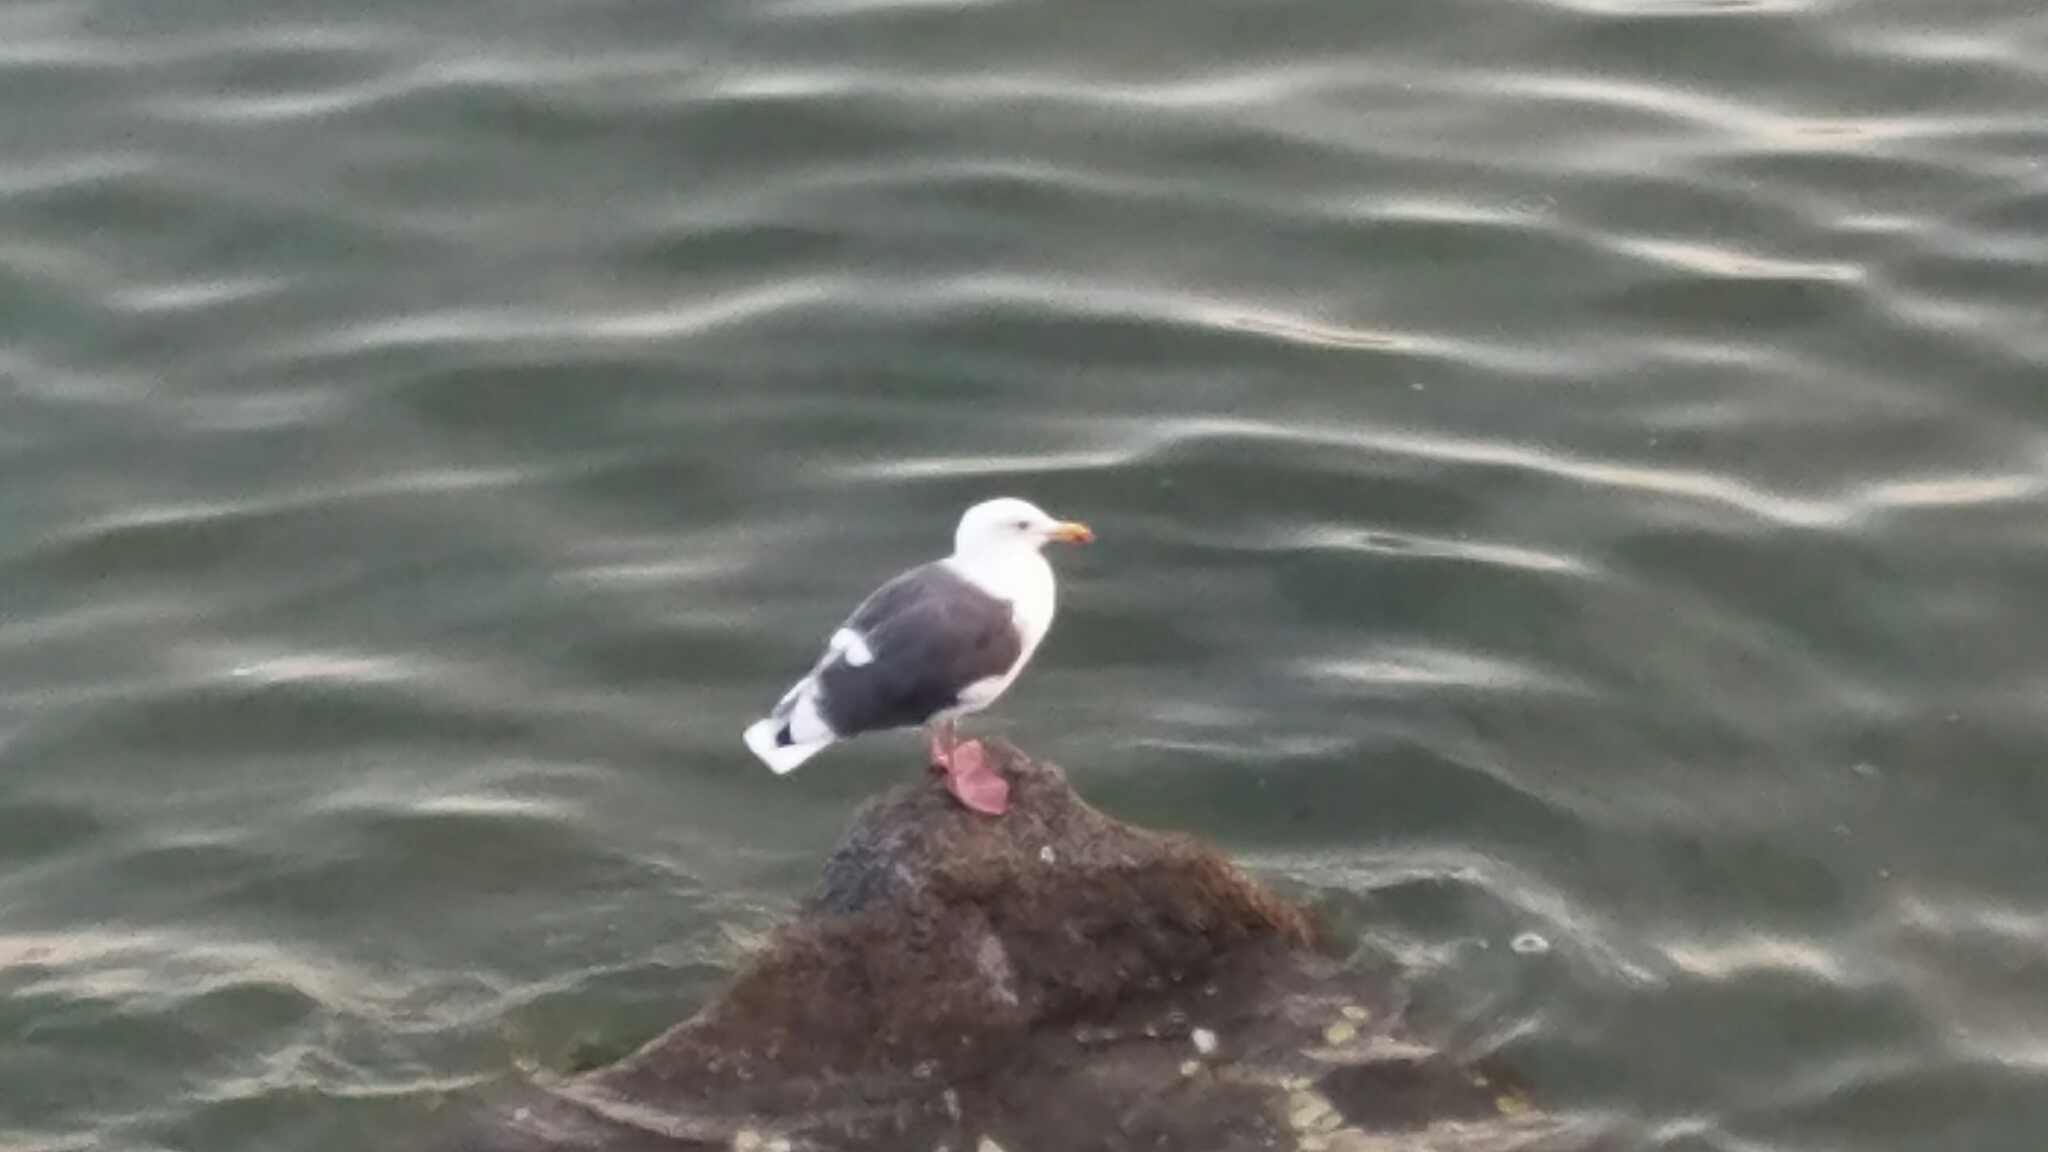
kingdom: Animalia
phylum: Chordata
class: Aves
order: Charadriiformes
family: Laridae
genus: Larus
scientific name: Larus occidentalis
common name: Western gull
